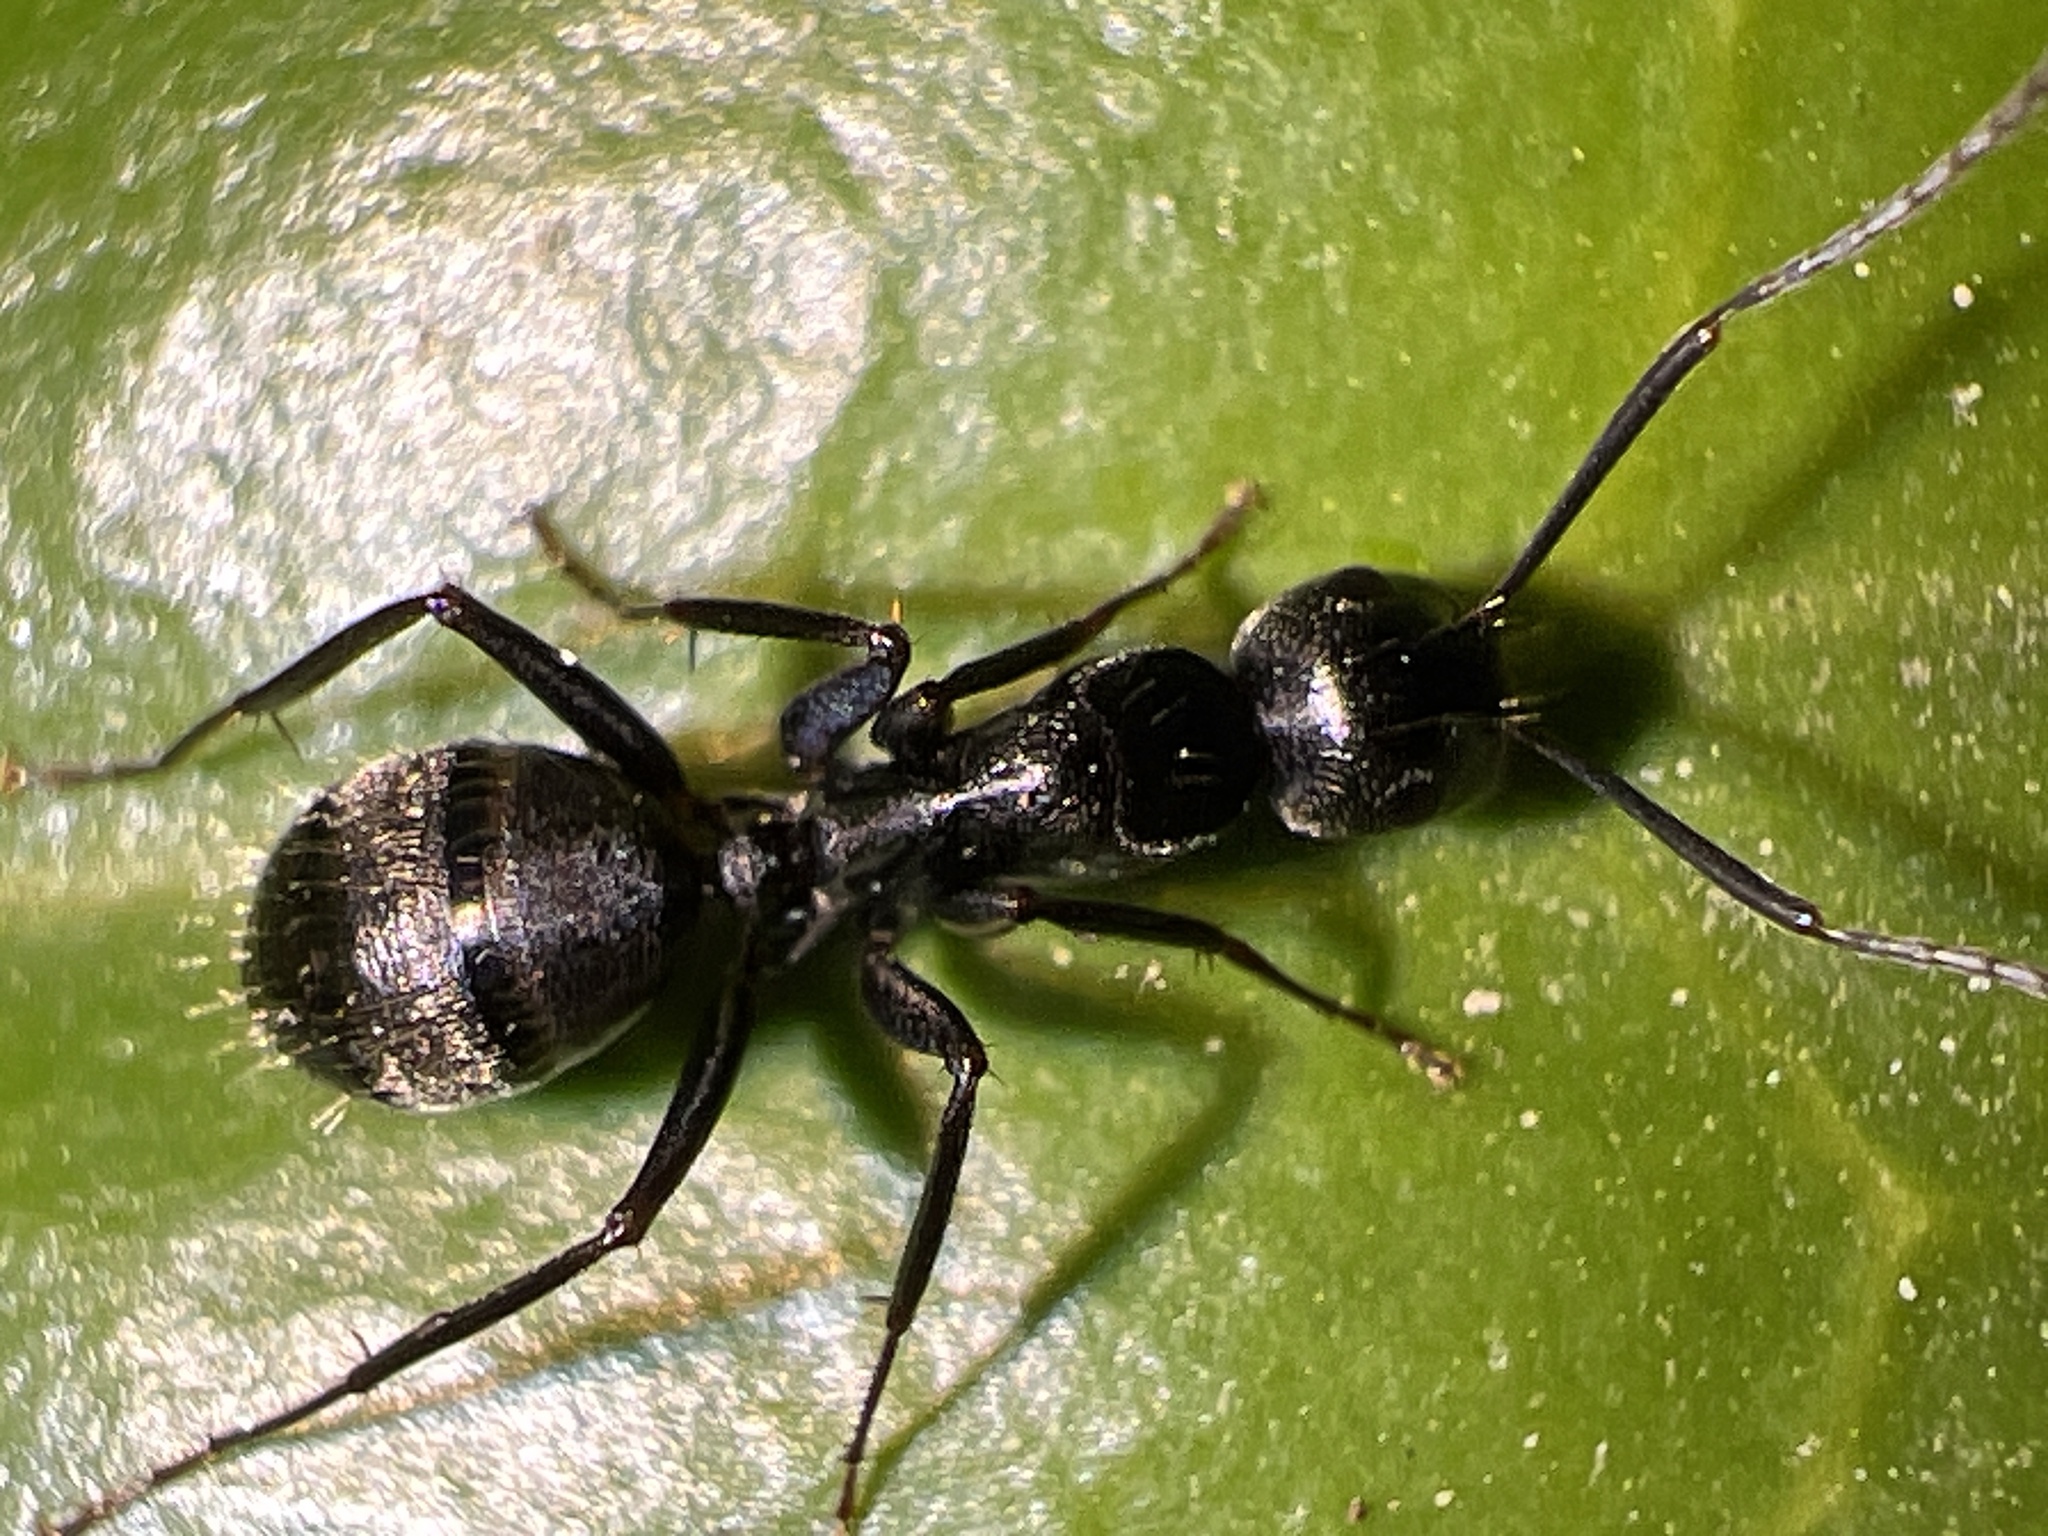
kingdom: Animalia
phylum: Arthropoda
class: Insecta
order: Hymenoptera
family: Formicidae
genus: Camponotus
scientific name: Camponotus pennsylvanicus
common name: Black carpenter ant
